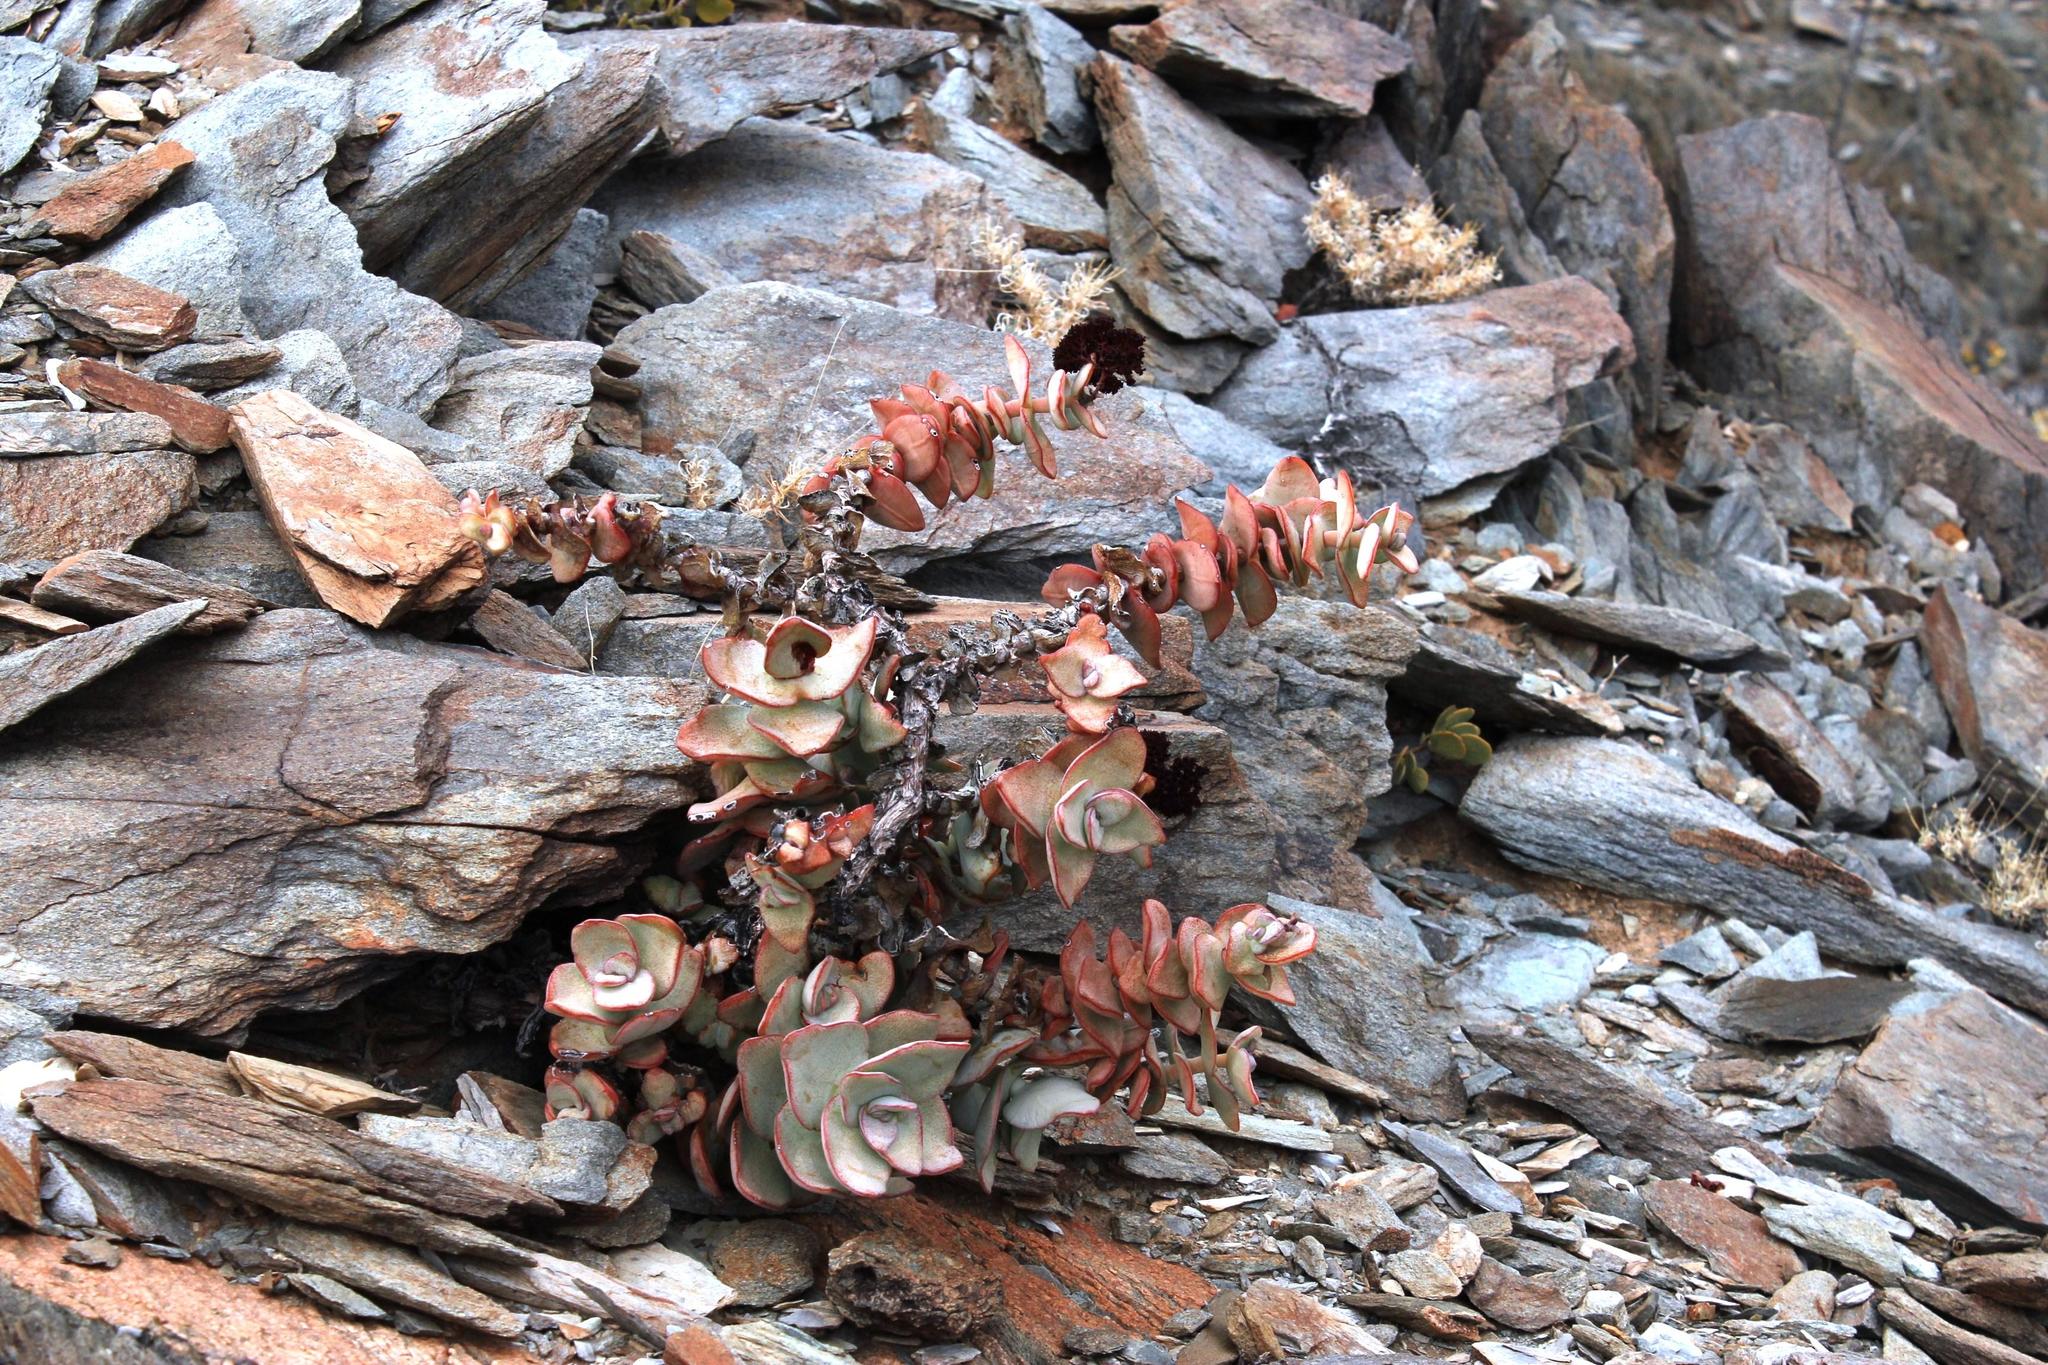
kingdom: Plantae
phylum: Tracheophyta
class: Magnoliopsida
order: Saxifragales
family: Crassulaceae
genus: Crassula
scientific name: Crassula sladenii
